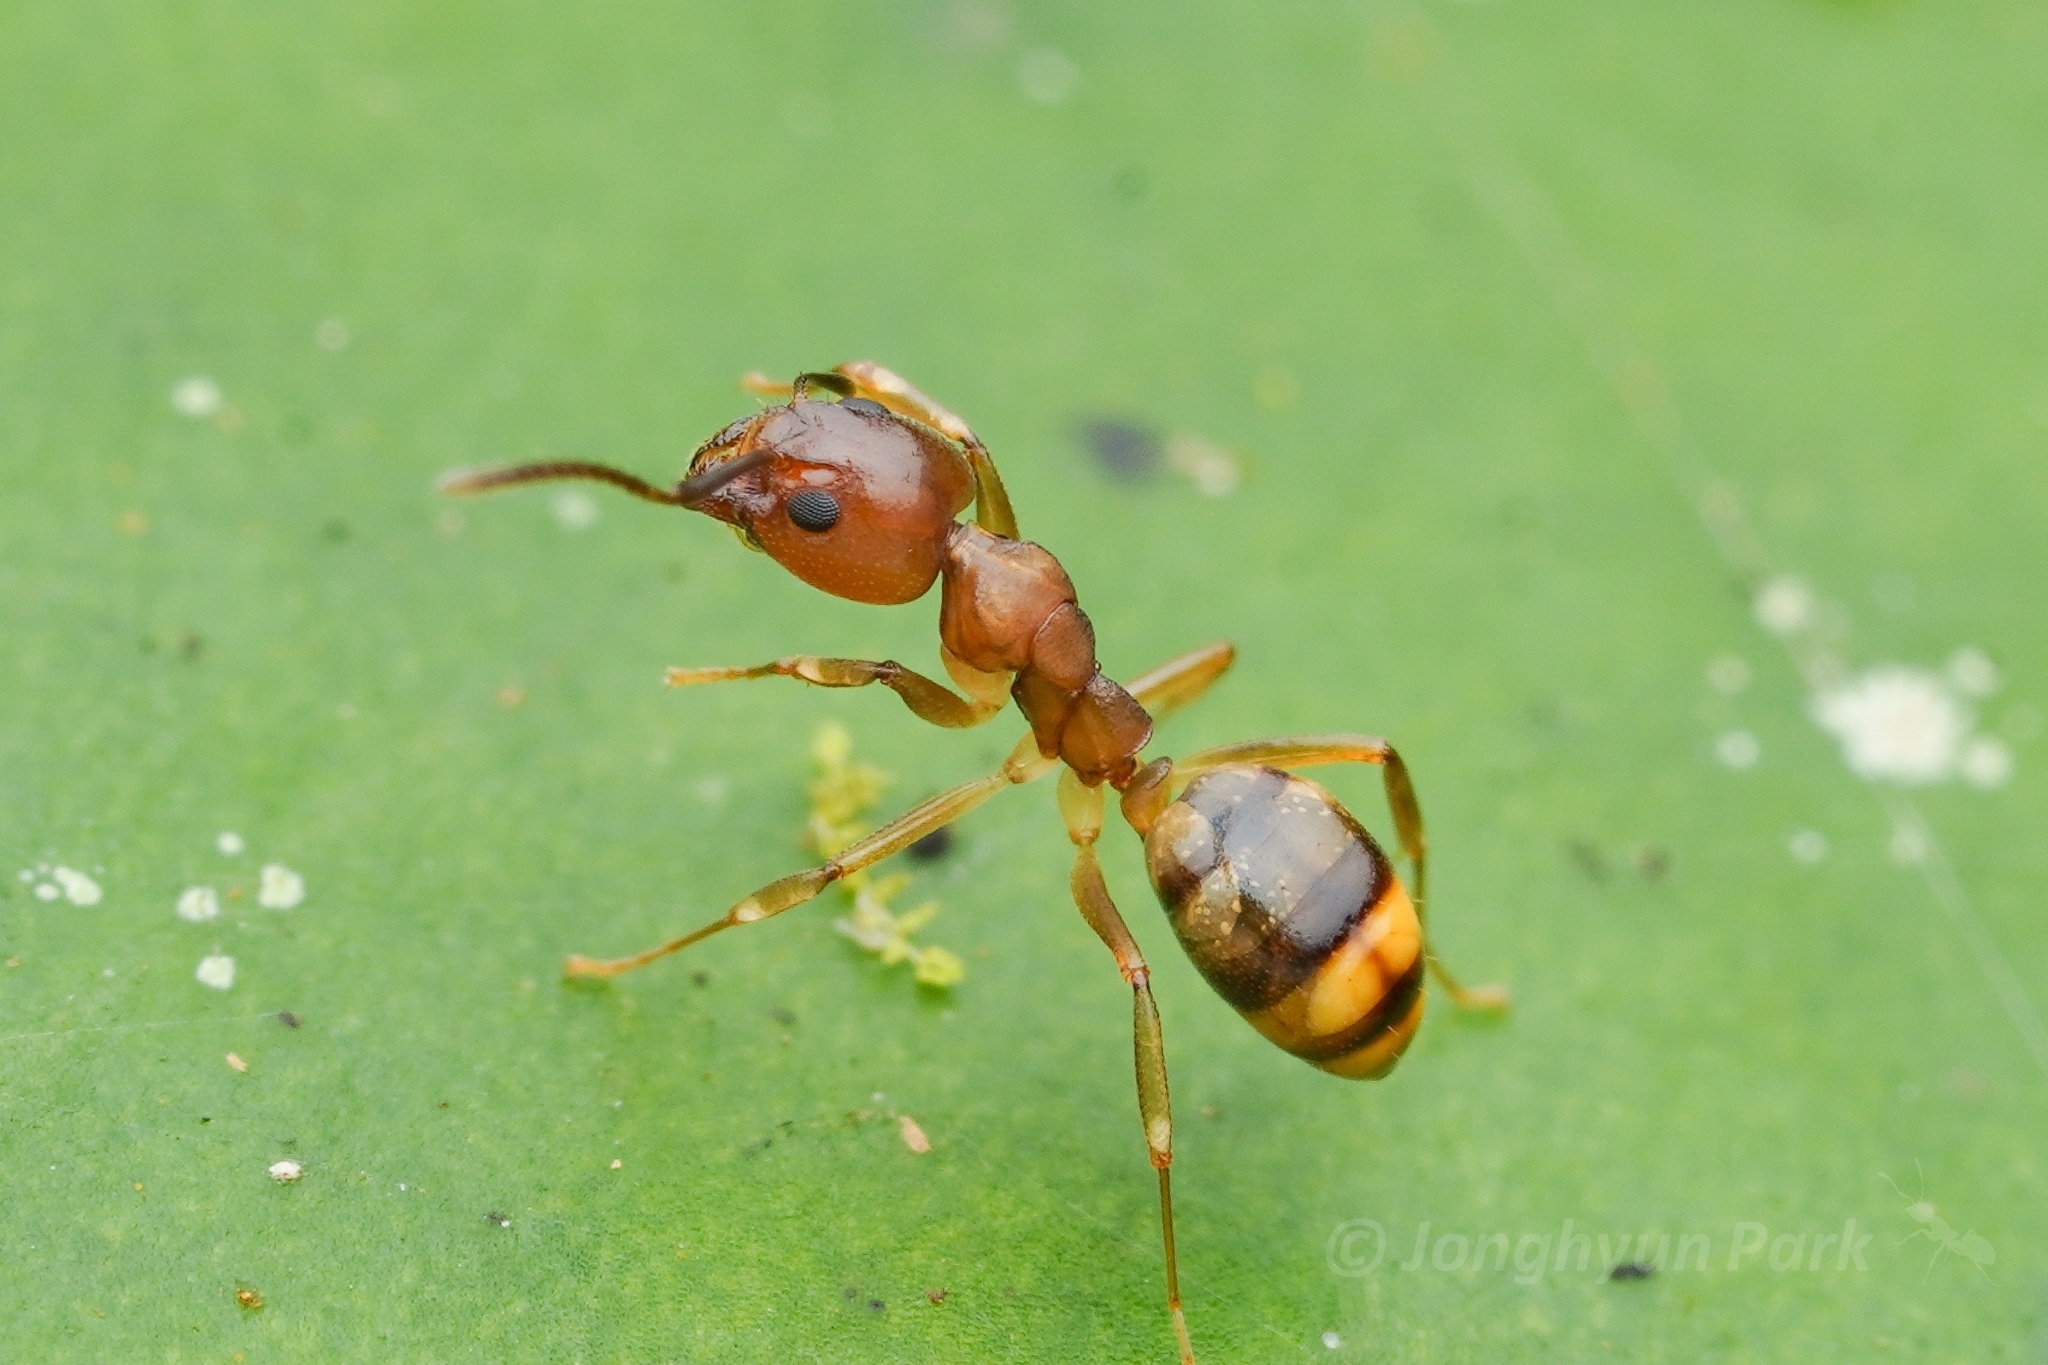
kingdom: Animalia
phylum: Arthropoda
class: Insecta
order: Hymenoptera
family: Formicidae
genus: Dolichoderus
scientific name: Dolichoderus lutosus
